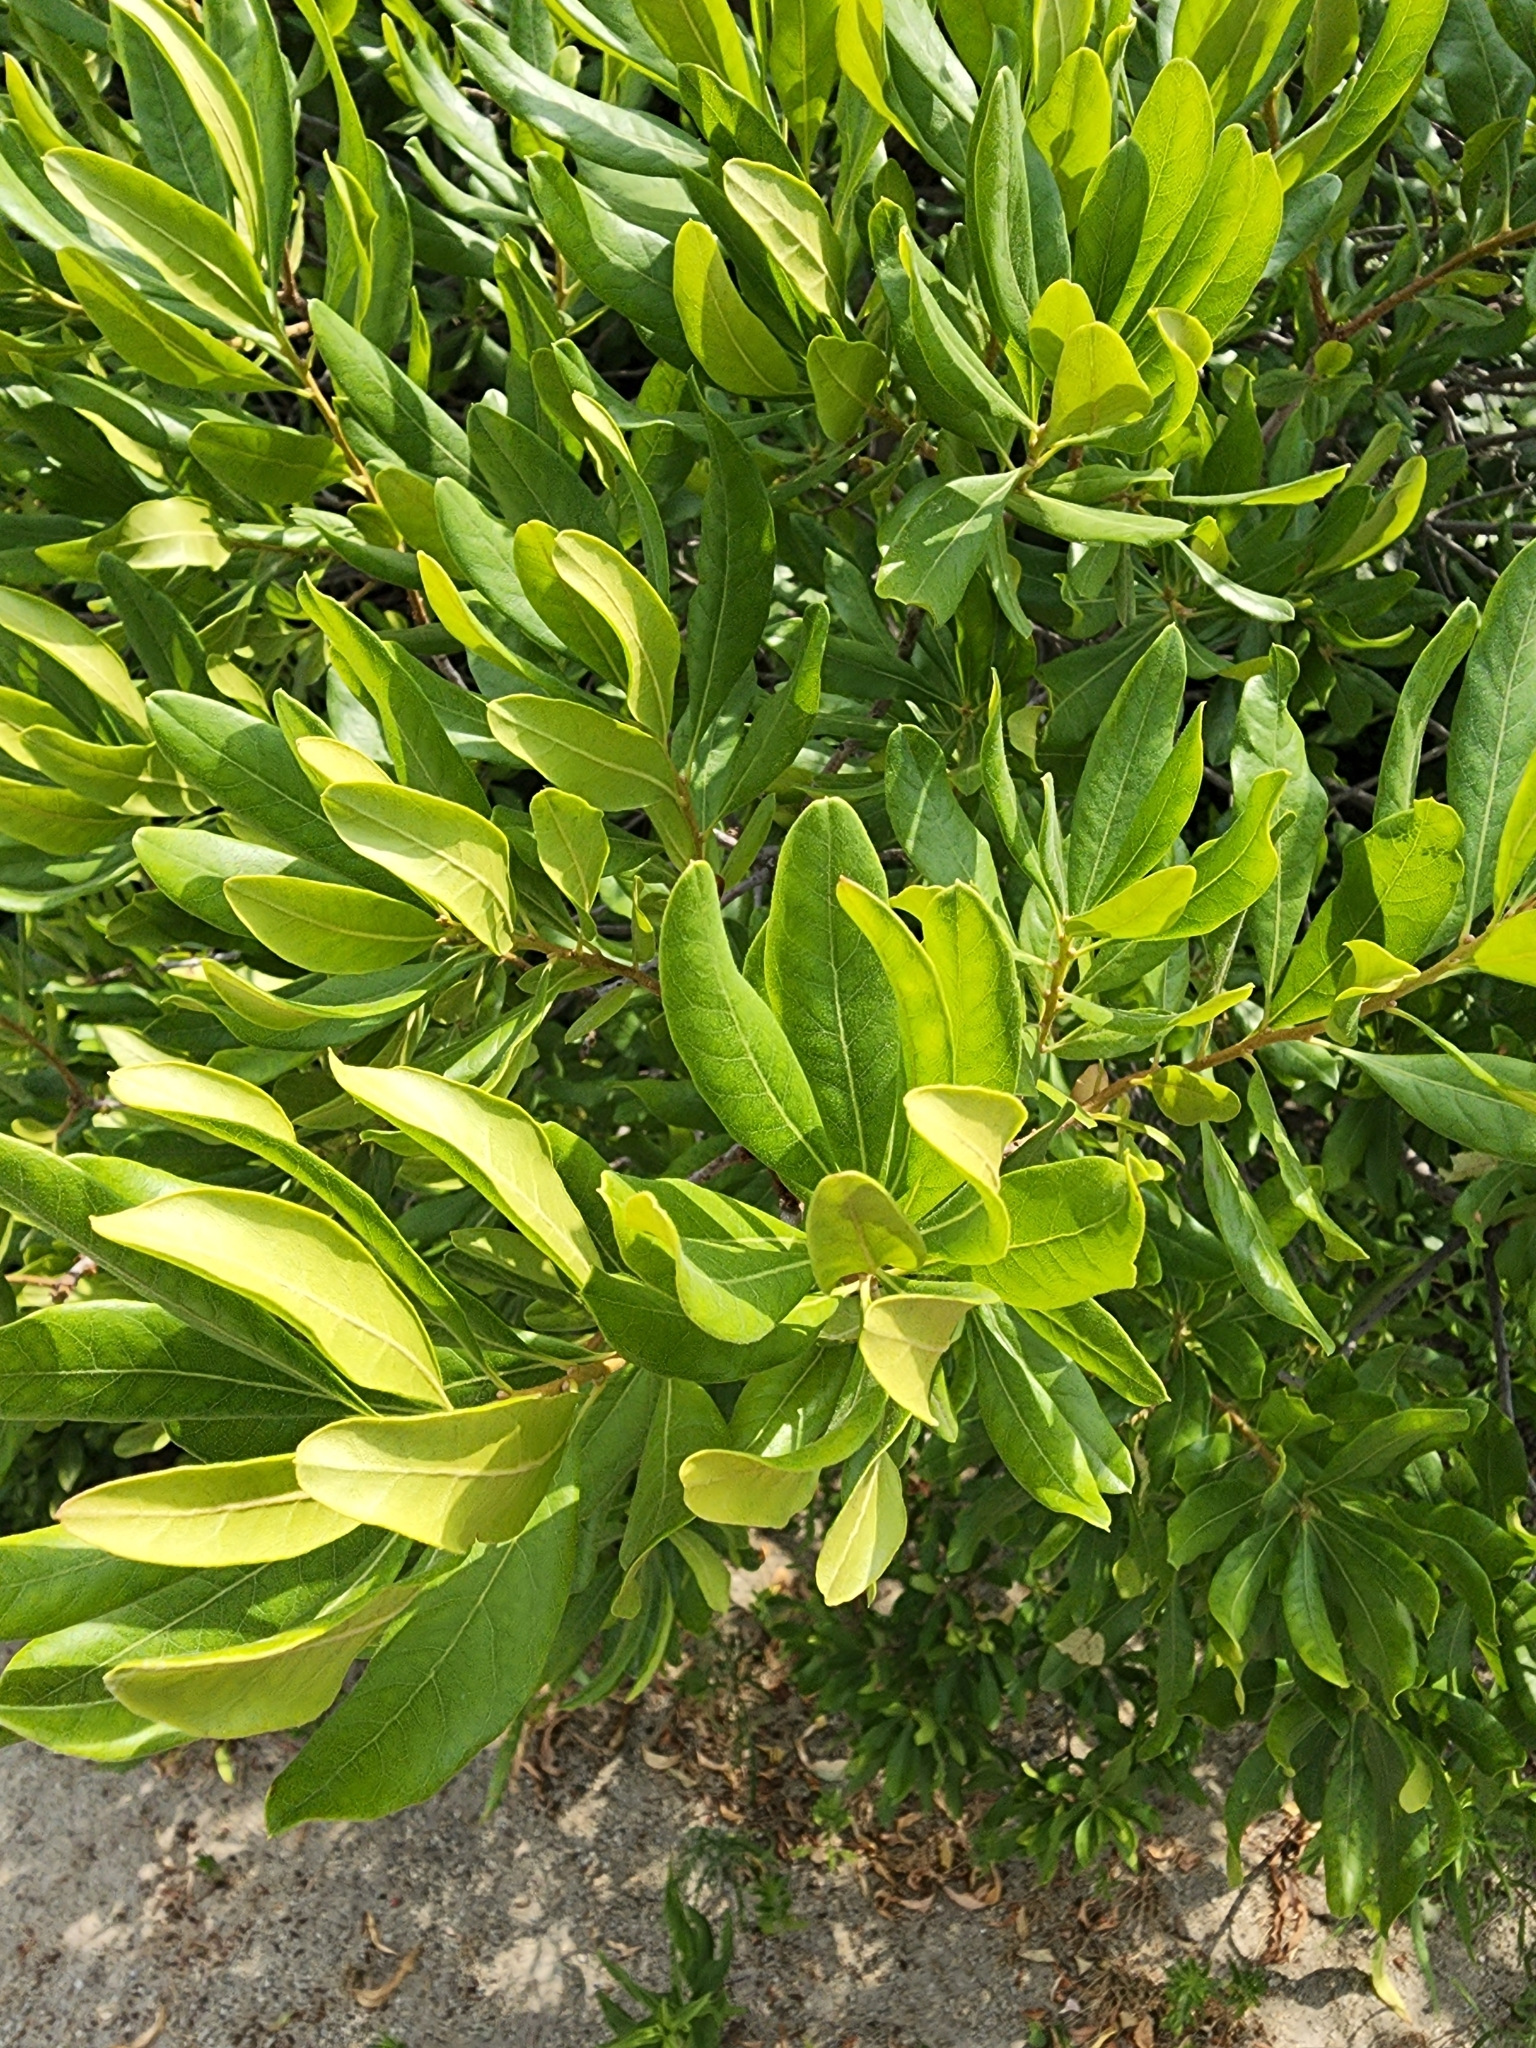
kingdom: Plantae
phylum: Tracheophyta
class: Magnoliopsida
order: Fagales
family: Myricaceae
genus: Morella
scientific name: Morella pensylvanica
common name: Northern bayberry
